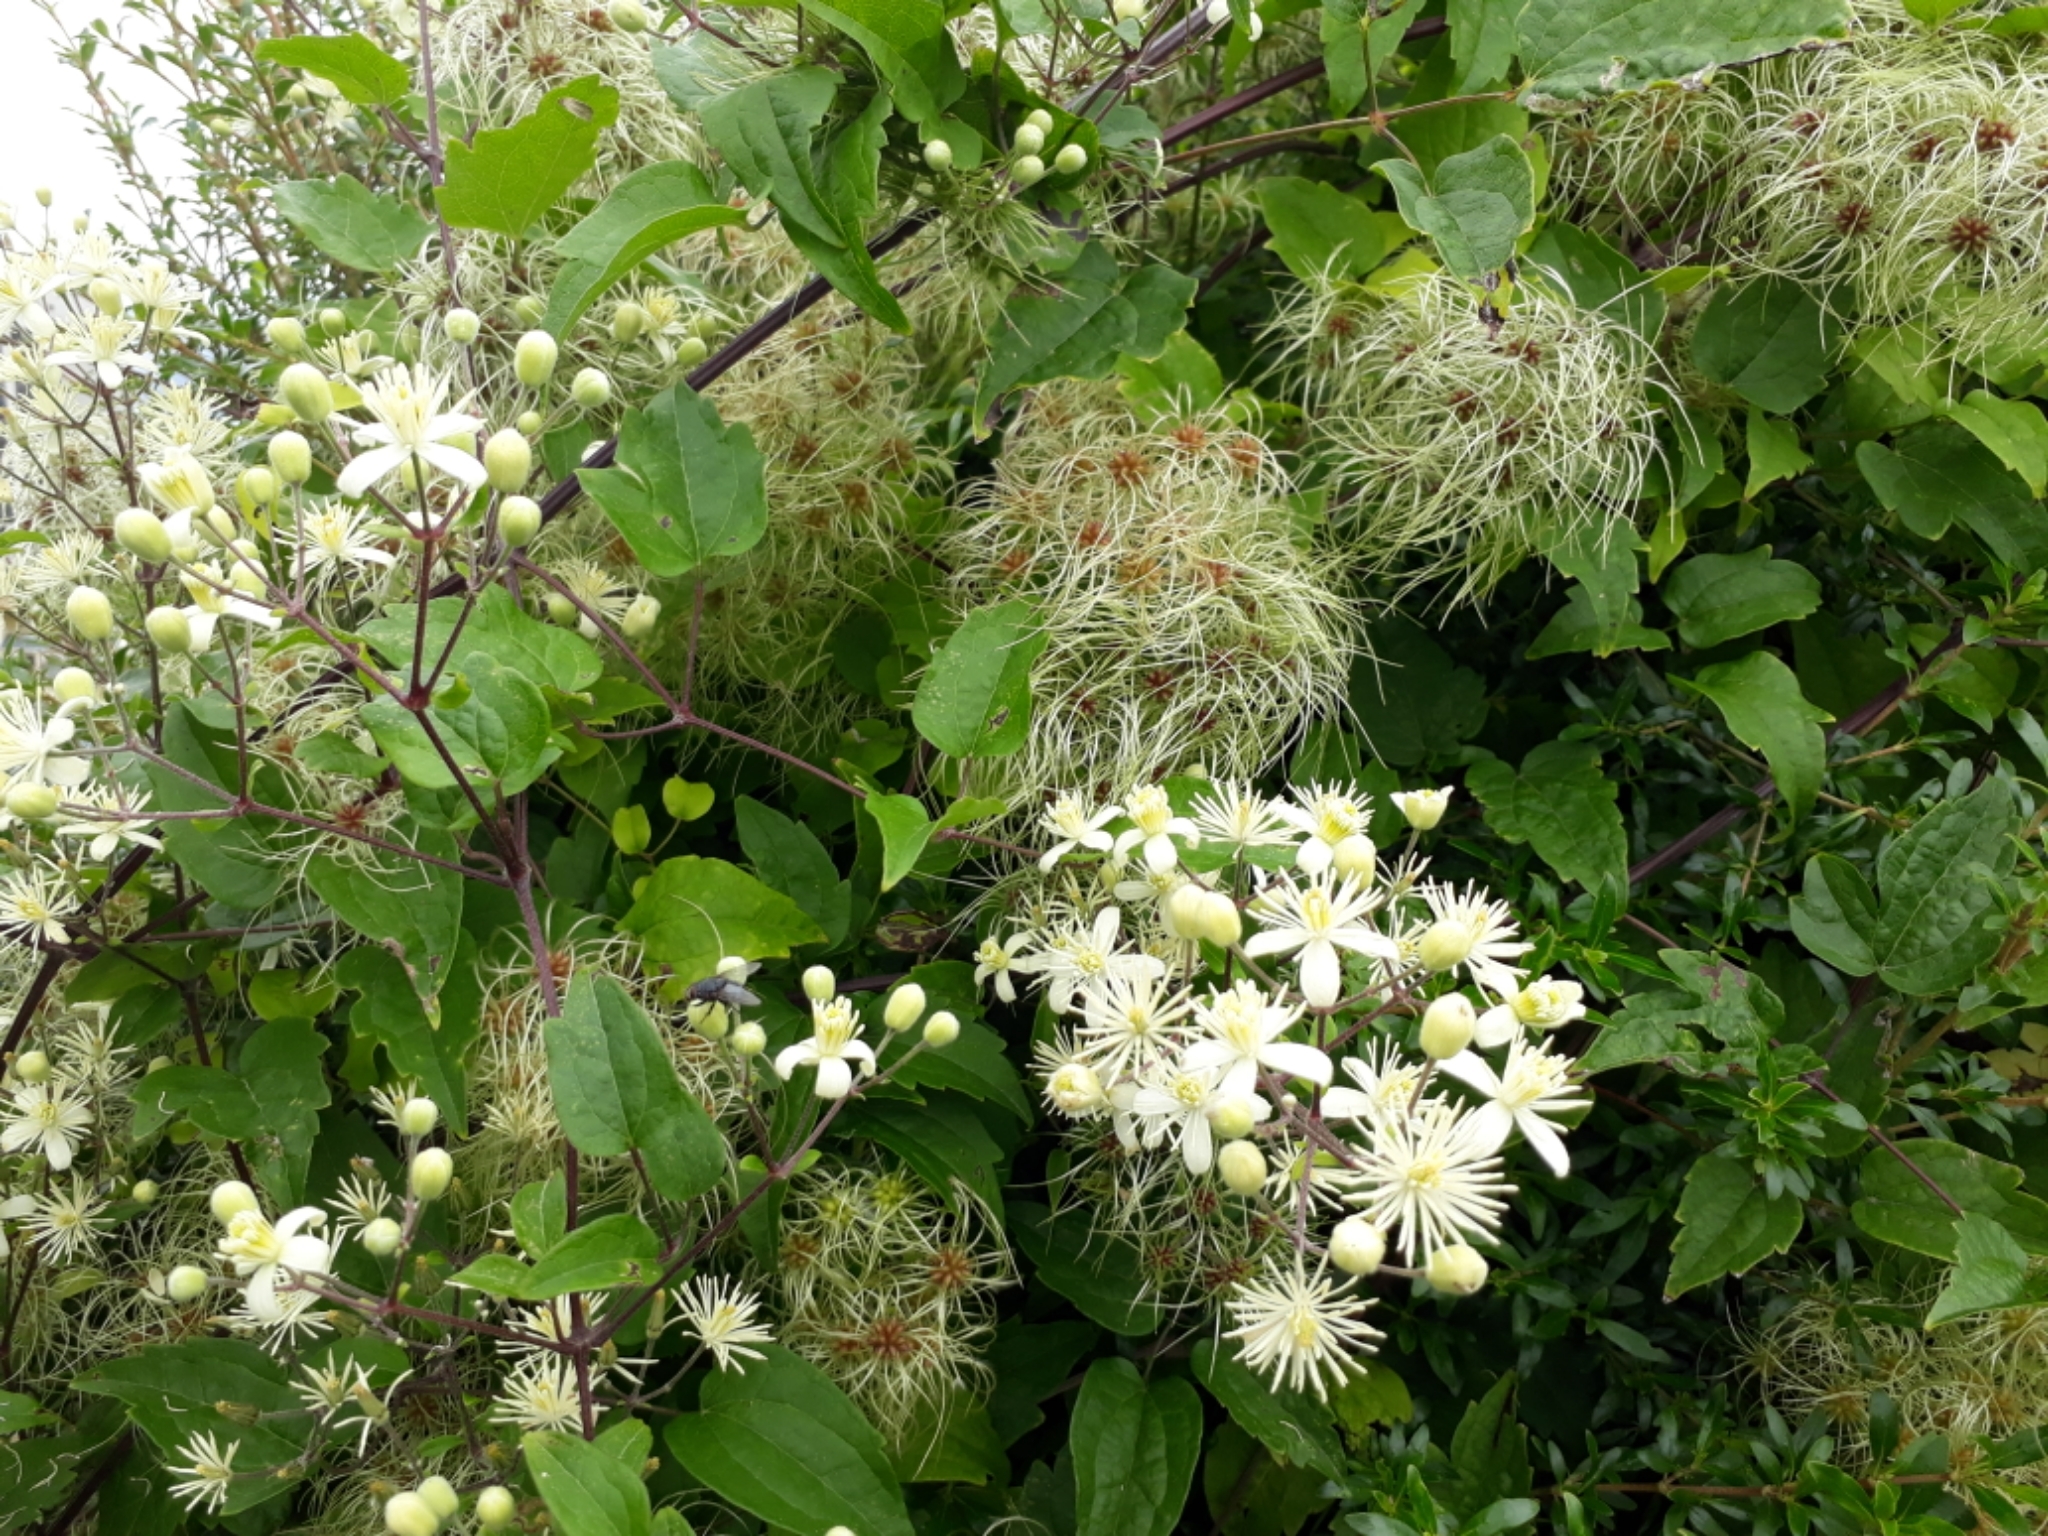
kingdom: Plantae
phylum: Tracheophyta
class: Magnoliopsida
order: Ranunculales
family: Ranunculaceae
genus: Clematis
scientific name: Clematis vitalba
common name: Evergreen clematis
